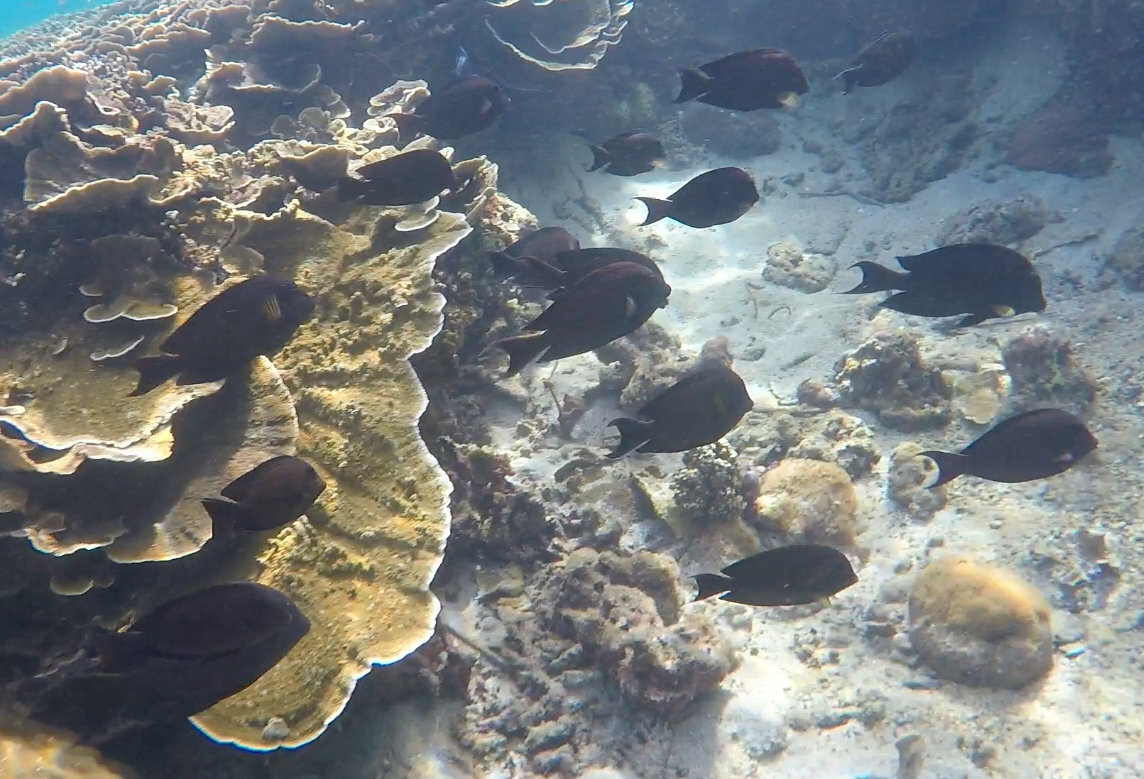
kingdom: Animalia
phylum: Chordata
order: Perciformes
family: Acanthuridae
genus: Ctenochaetus
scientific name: Ctenochaetus striatus
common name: Bristle-toothed surgeonfish
